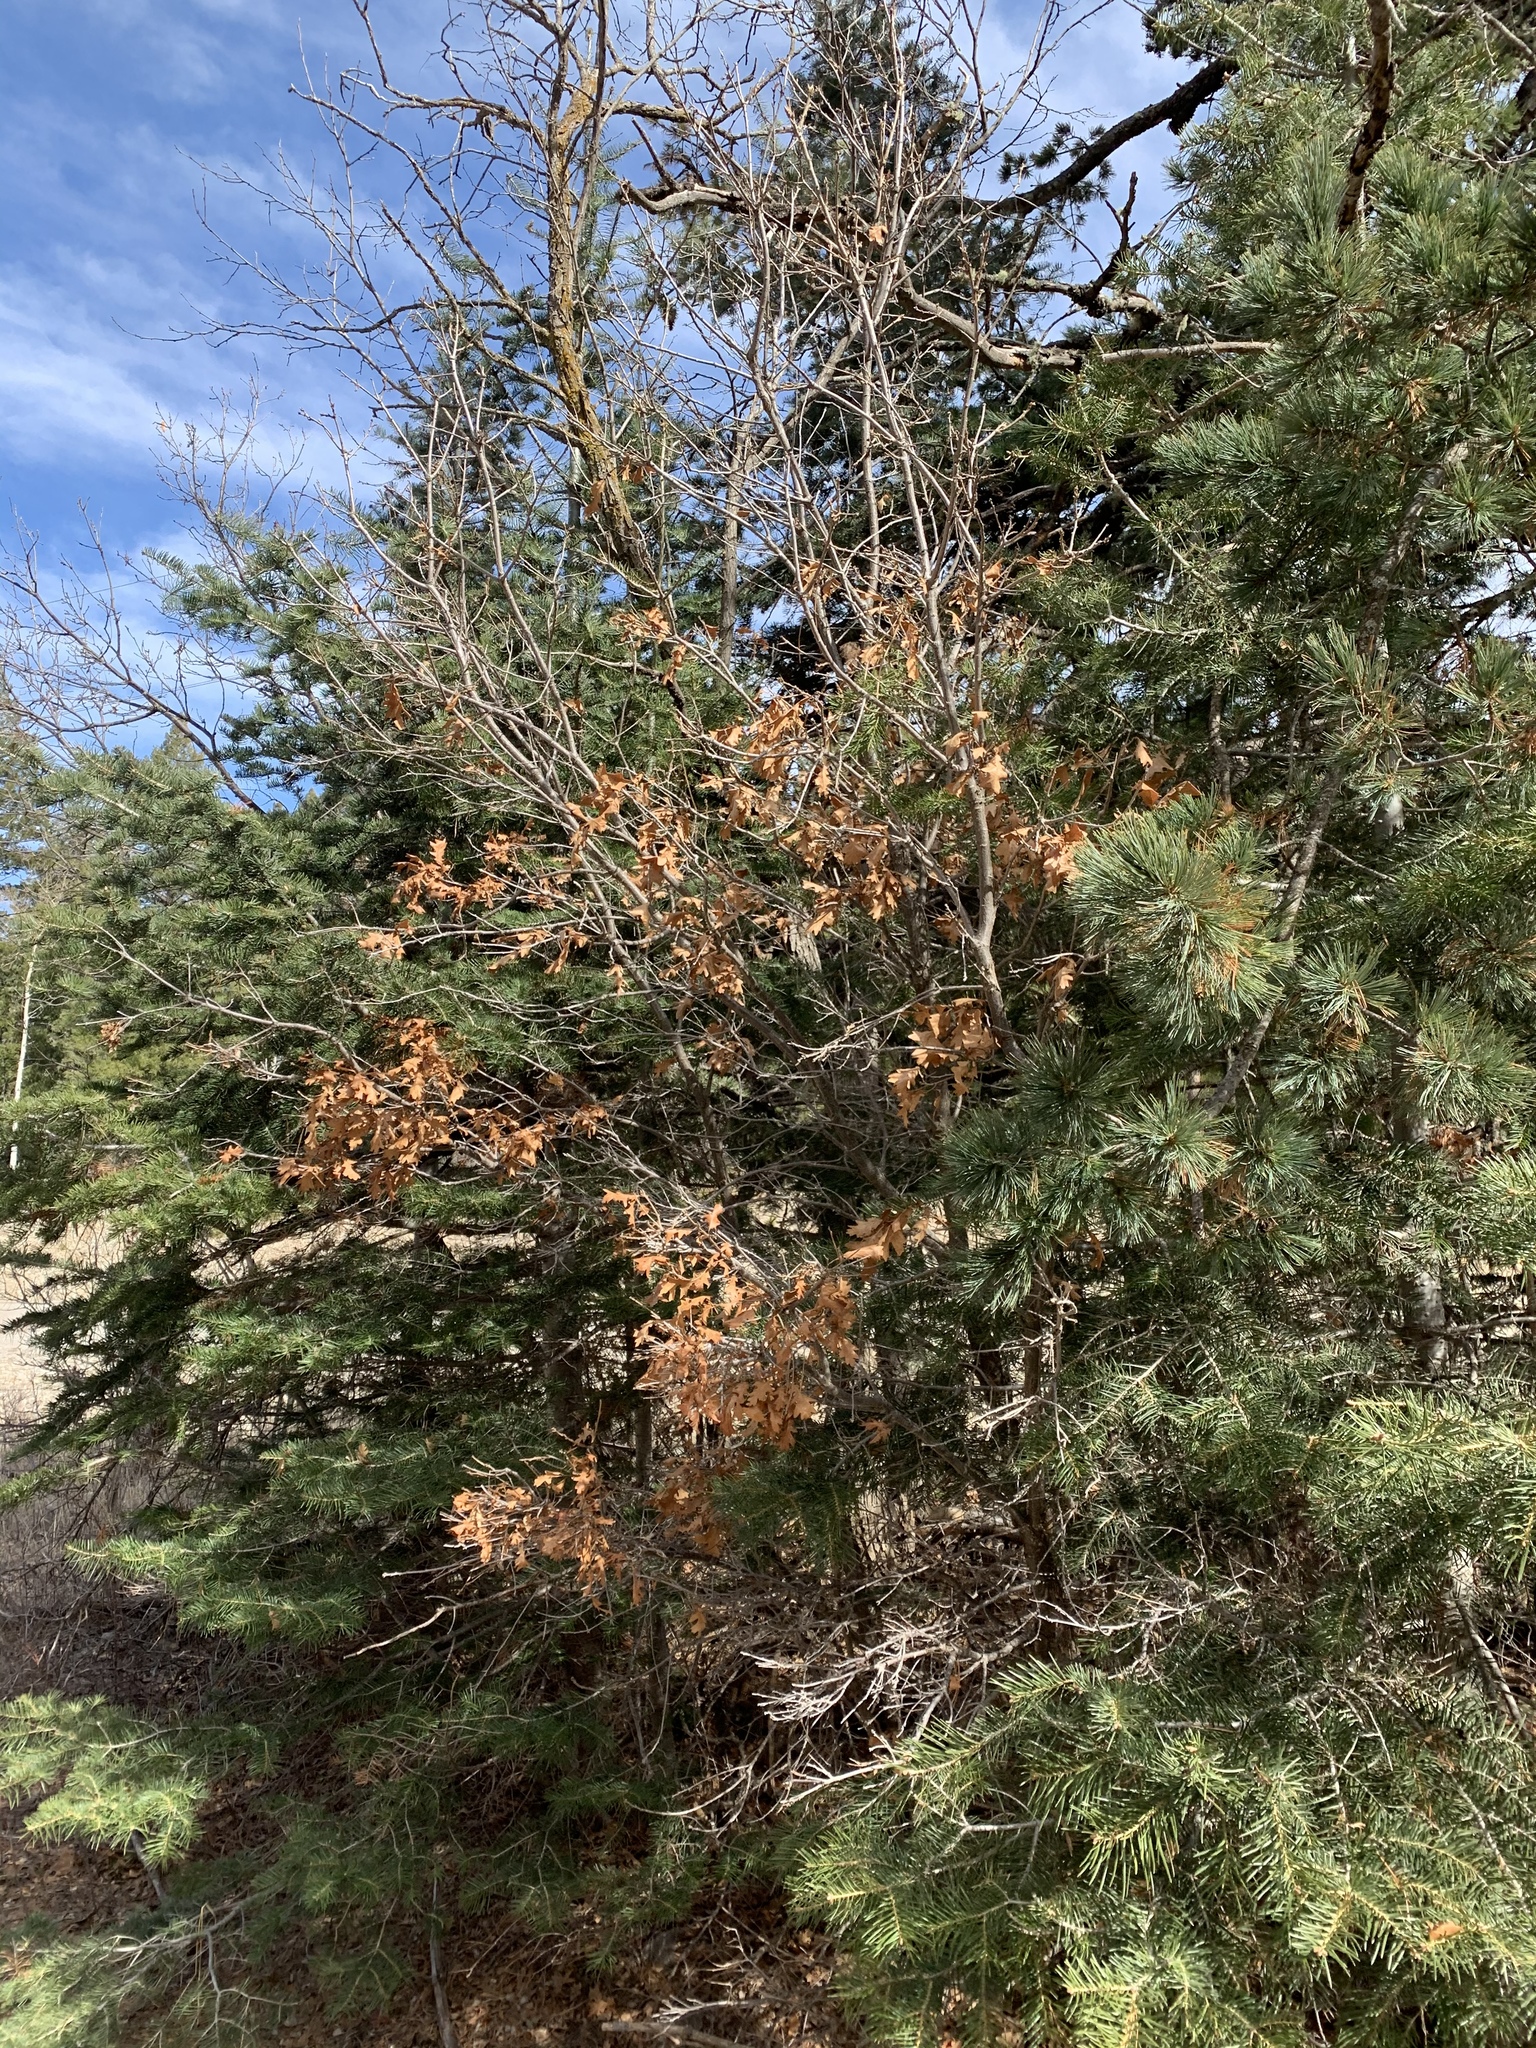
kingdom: Plantae
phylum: Tracheophyta
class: Magnoliopsida
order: Fagales
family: Fagaceae
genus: Quercus
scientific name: Quercus gambelii
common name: Gambel oak
